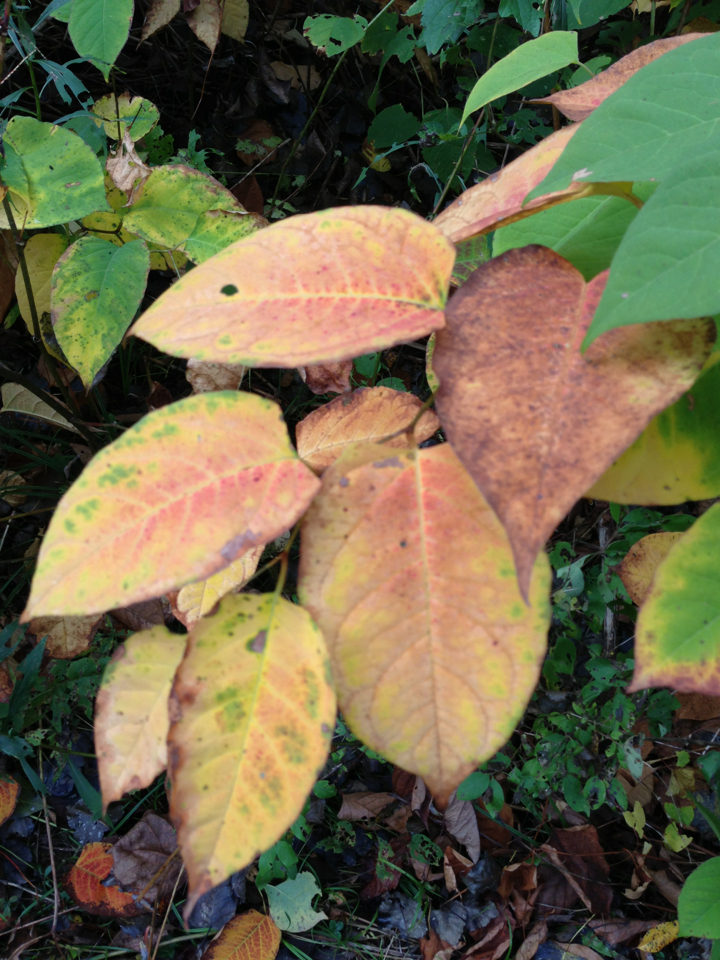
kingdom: Plantae
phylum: Tracheophyta
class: Magnoliopsida
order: Caryophyllales
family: Polygonaceae
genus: Reynoutria
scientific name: Reynoutria japonica
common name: Japanese knotweed
